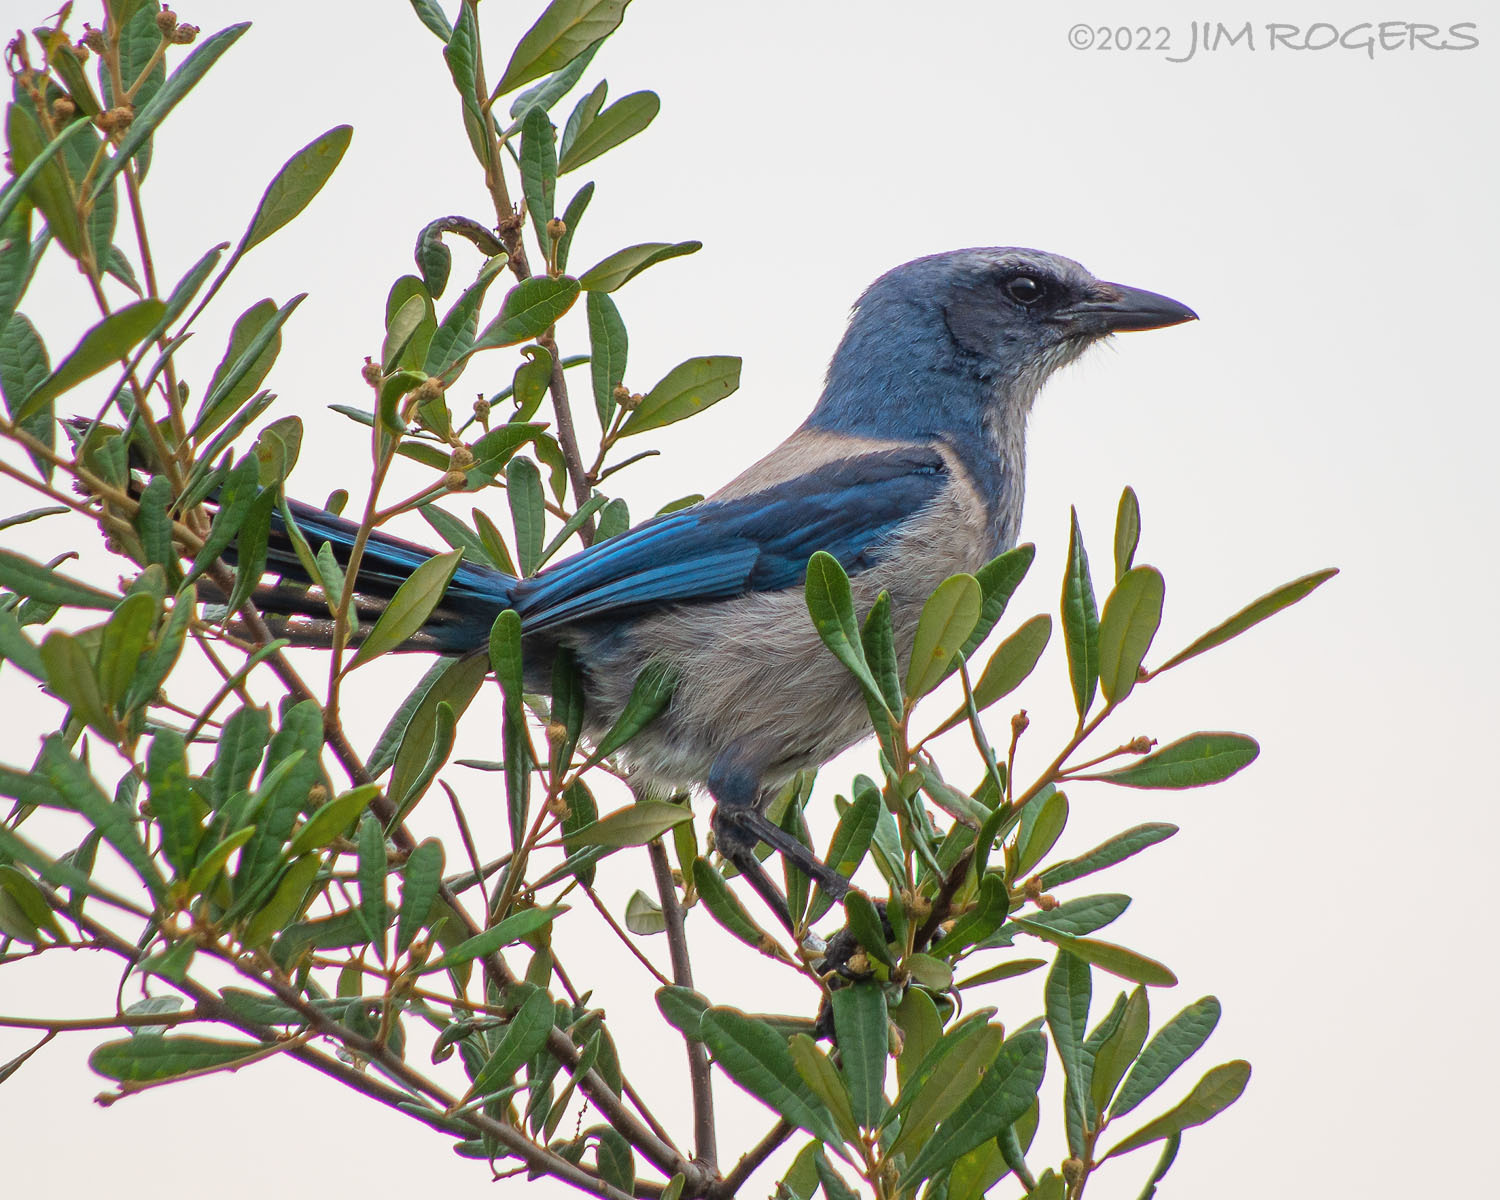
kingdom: Animalia
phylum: Chordata
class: Aves
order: Passeriformes
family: Corvidae
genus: Aphelocoma
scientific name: Aphelocoma coerulescens
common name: Florida scrub jay
